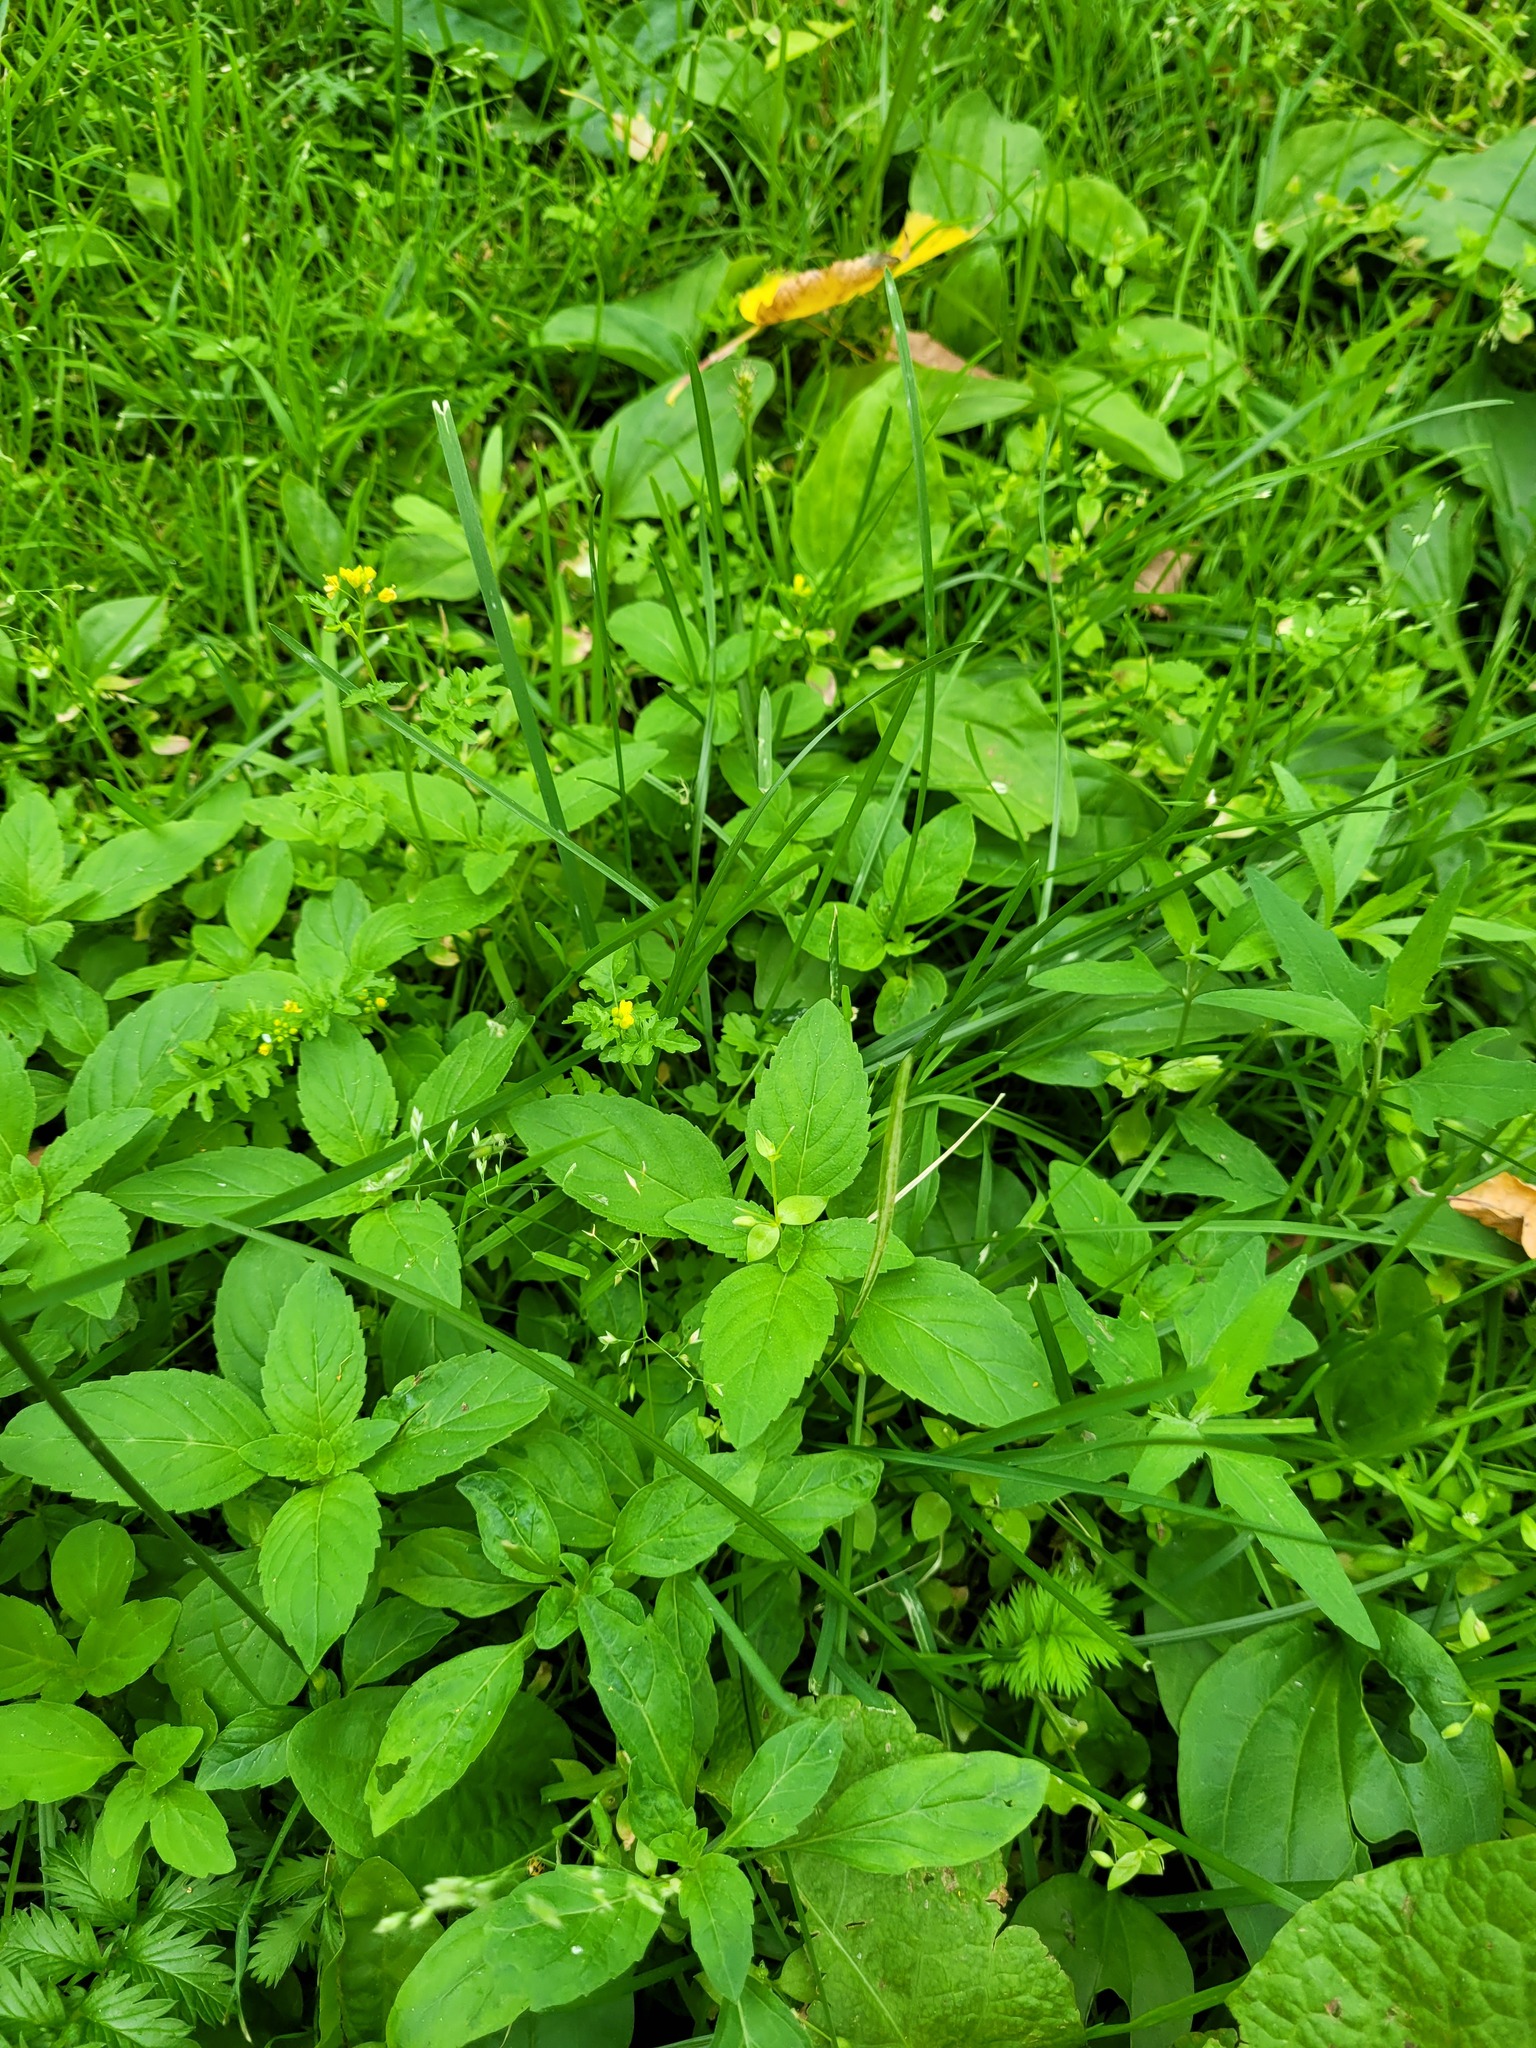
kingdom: Plantae
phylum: Tracheophyta
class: Magnoliopsida
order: Lamiales
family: Lamiaceae
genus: Mentha
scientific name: Mentha arvensis
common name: Corn mint
